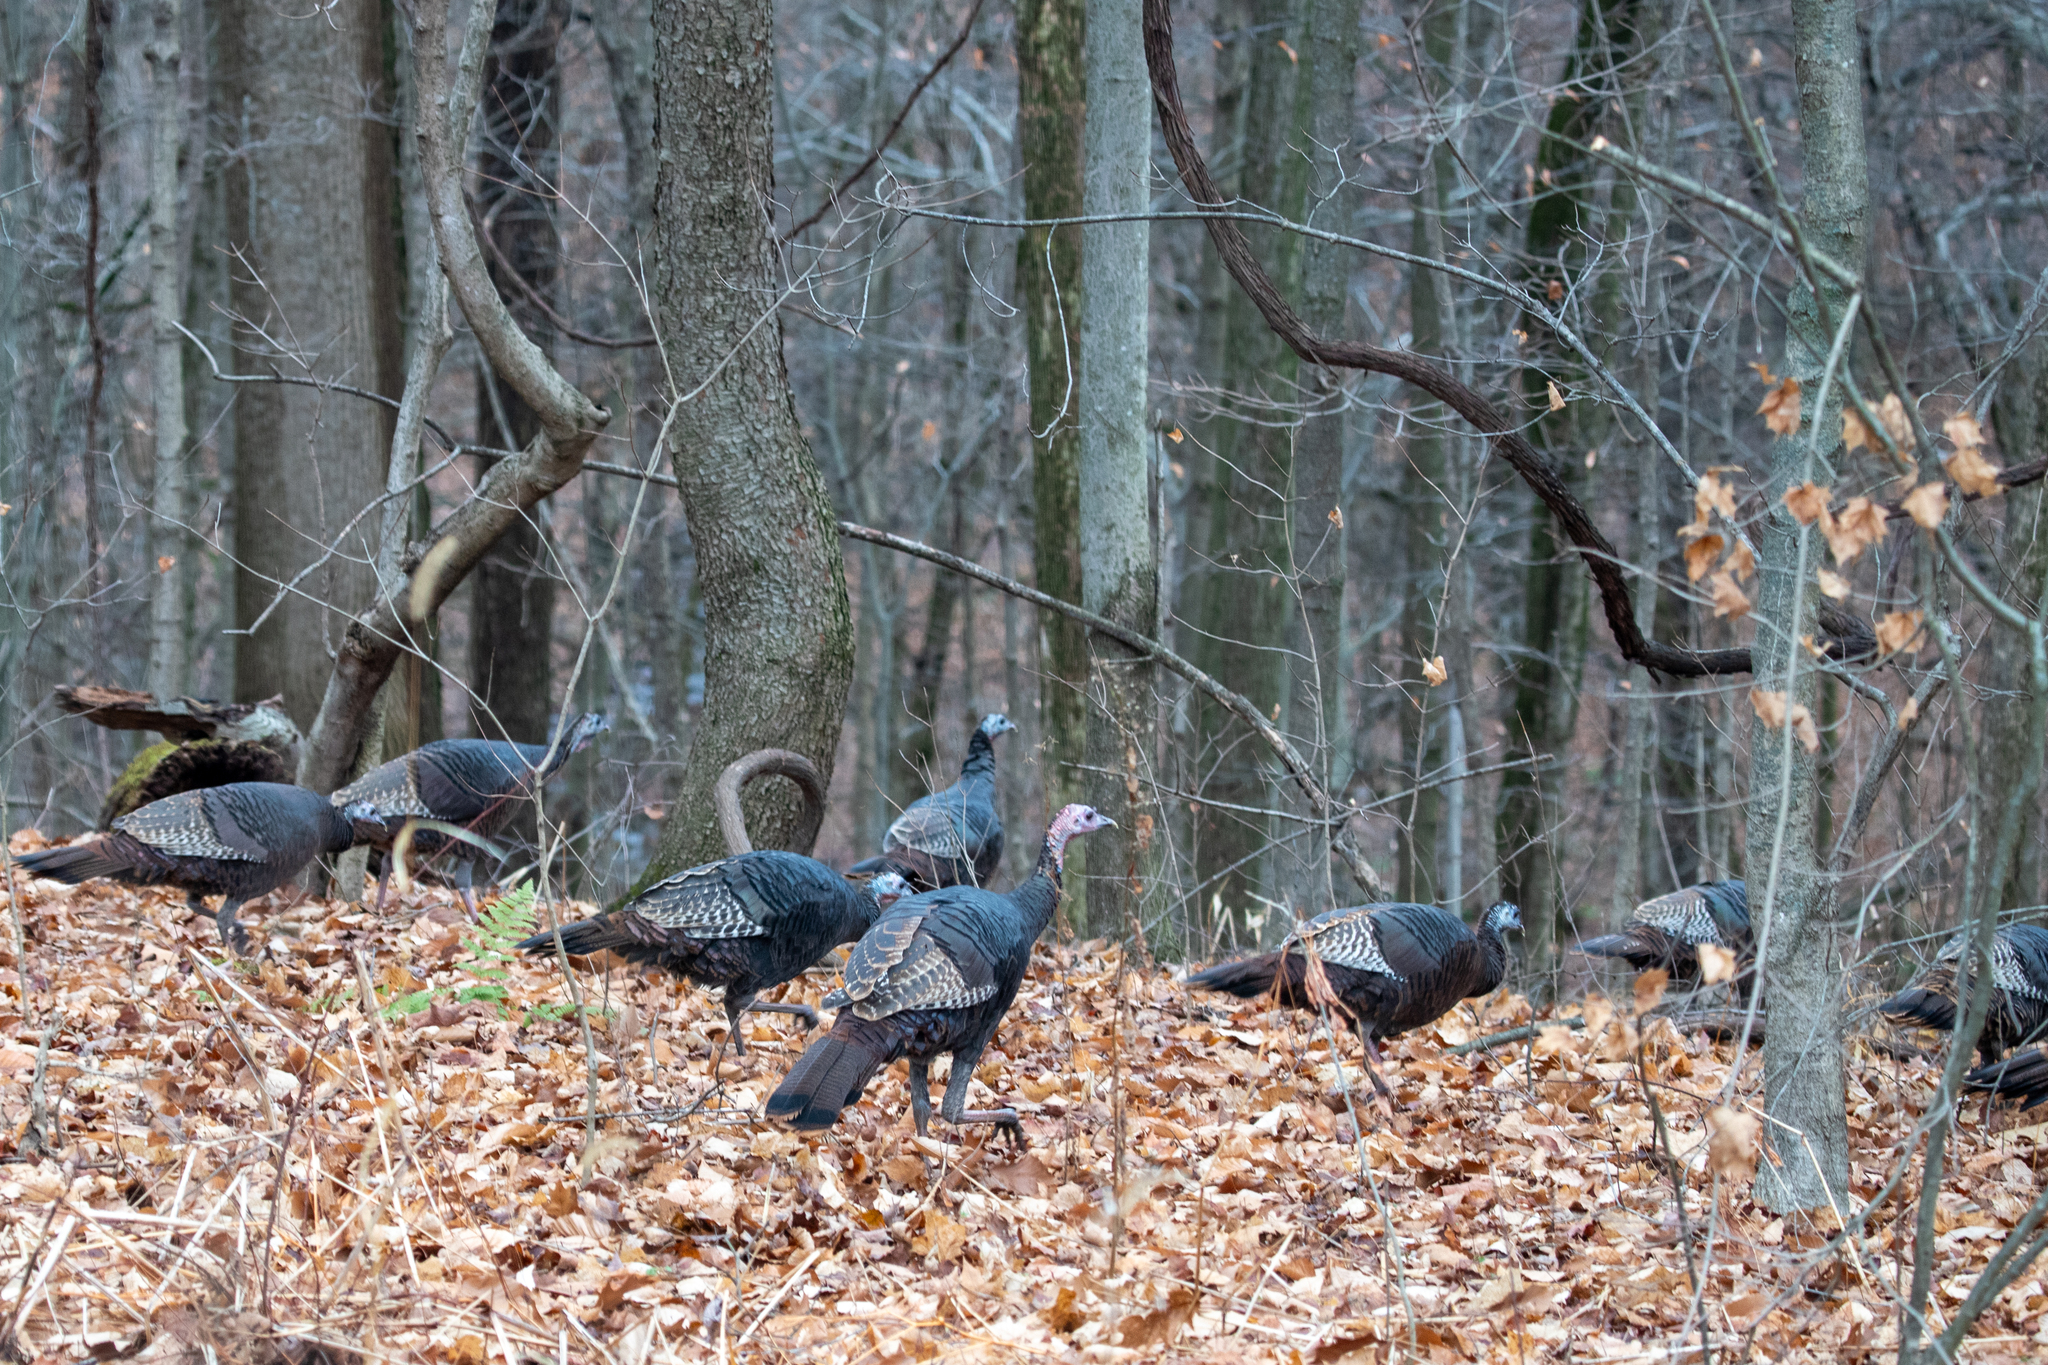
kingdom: Animalia
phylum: Chordata
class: Aves
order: Galliformes
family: Phasianidae
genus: Meleagris
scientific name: Meleagris gallopavo
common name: Wild turkey
